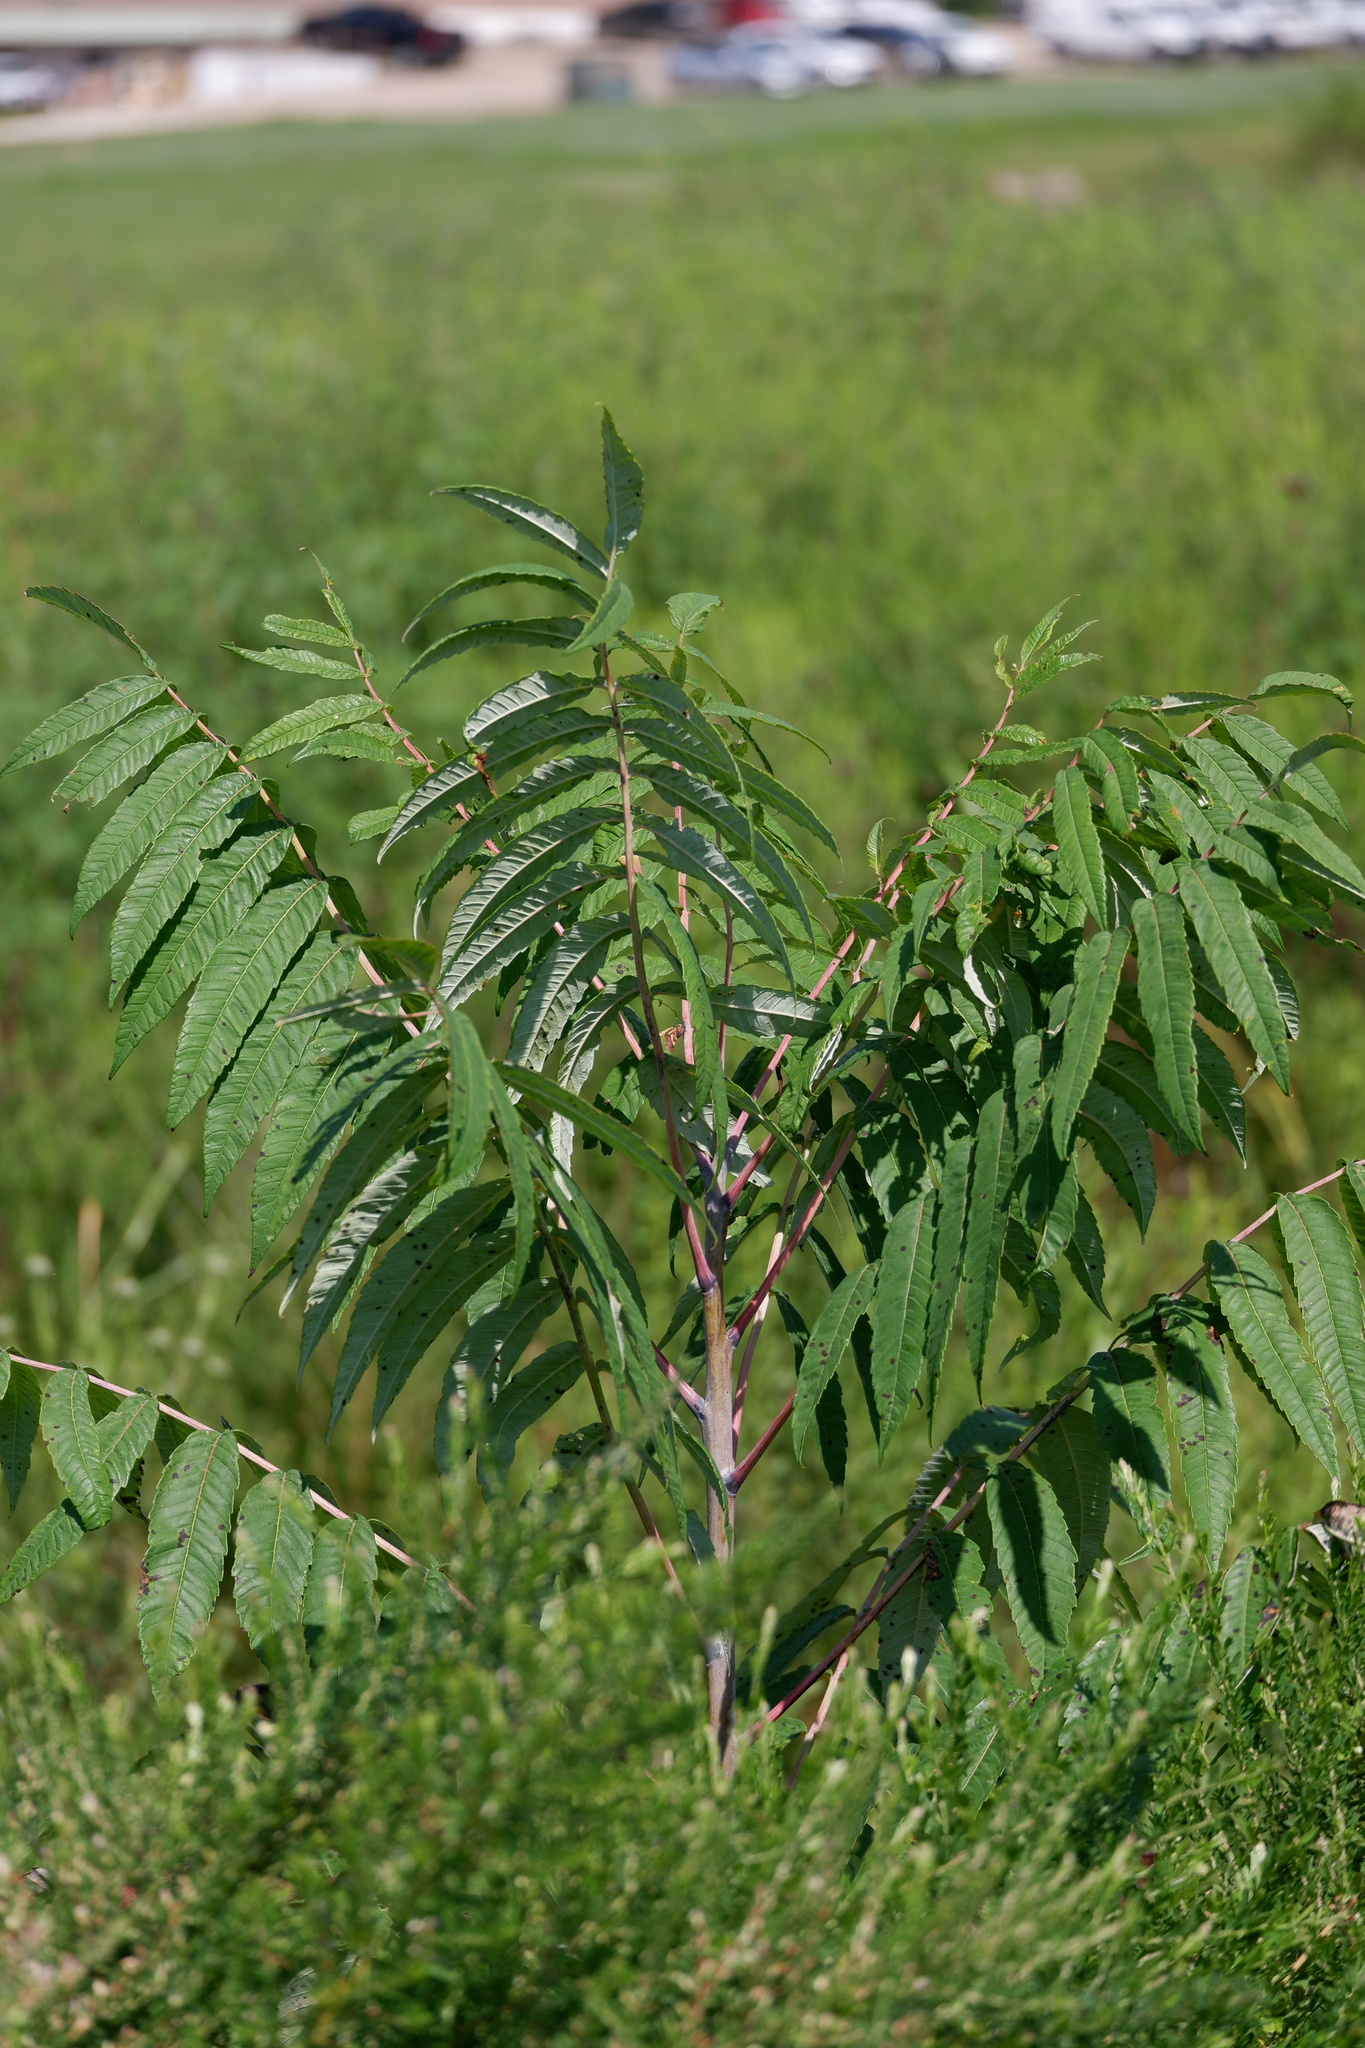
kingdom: Plantae
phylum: Tracheophyta
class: Magnoliopsida
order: Sapindales
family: Anacardiaceae
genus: Rhus
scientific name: Rhus glabra
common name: Scarlet sumac
